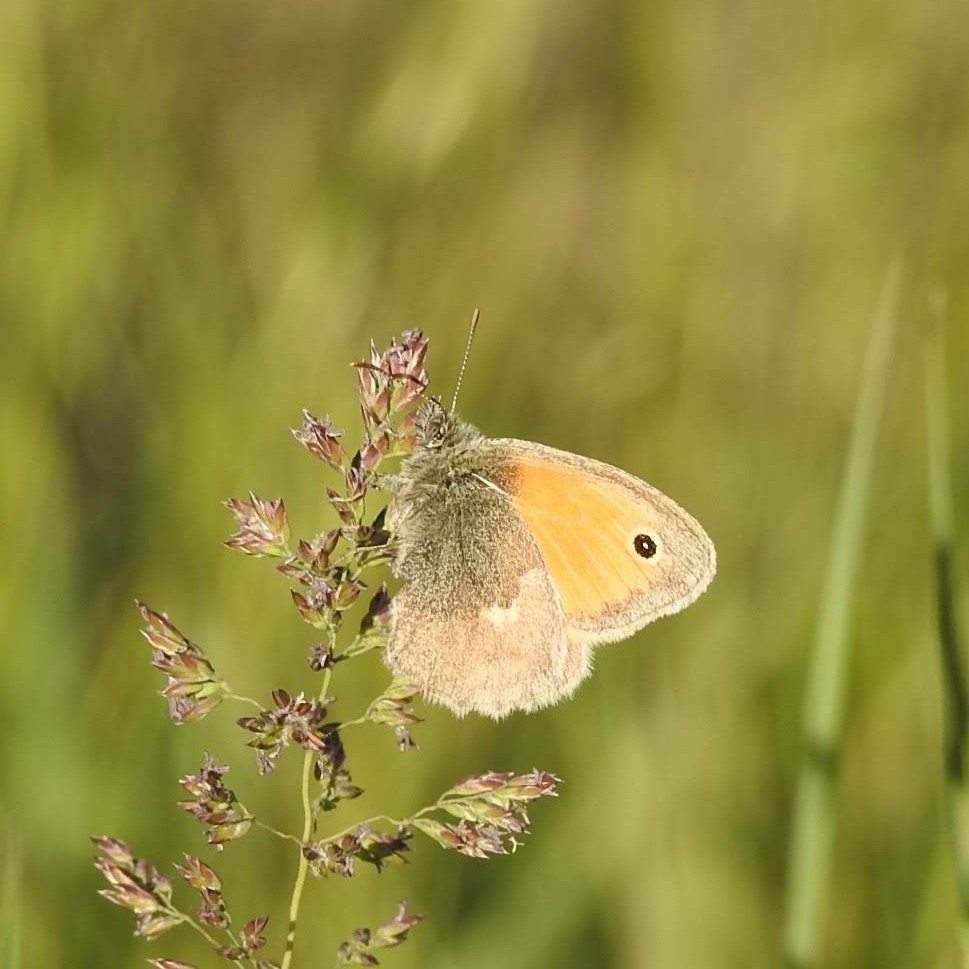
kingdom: Animalia
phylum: Arthropoda
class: Insecta
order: Lepidoptera
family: Nymphalidae
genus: Coenonympha
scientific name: Coenonympha pamphilus
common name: Small heath
